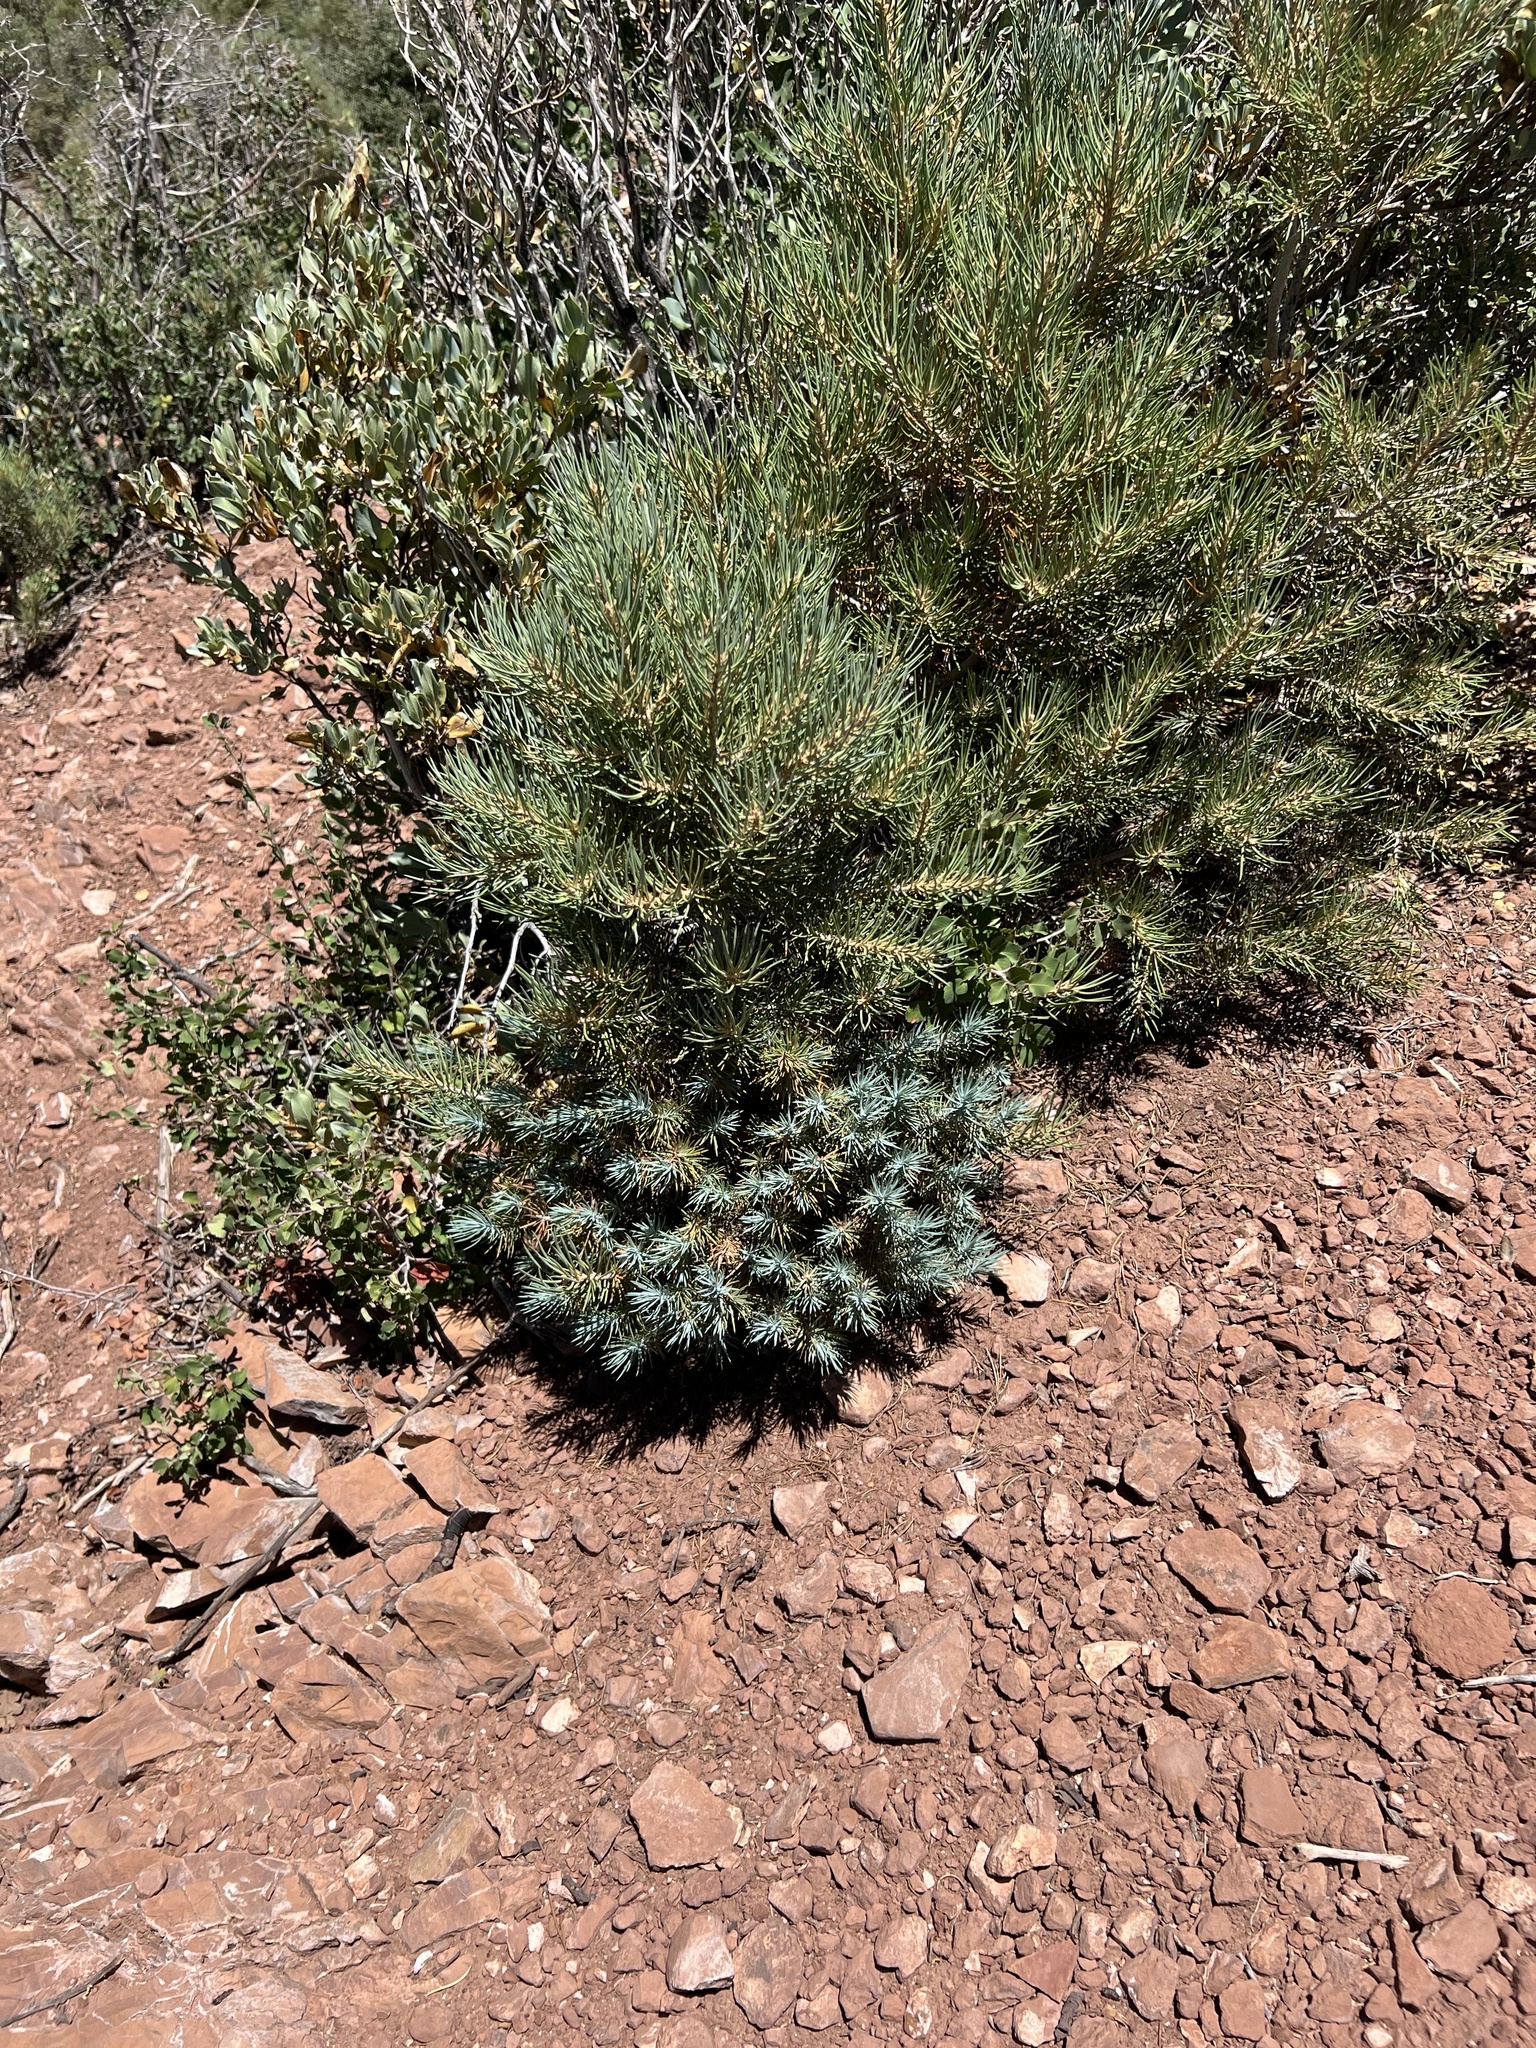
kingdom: Plantae
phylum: Tracheophyta
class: Pinopsida
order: Pinales
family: Pinaceae
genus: Pinus
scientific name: Pinus monophylla
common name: One-leaved nut pine
